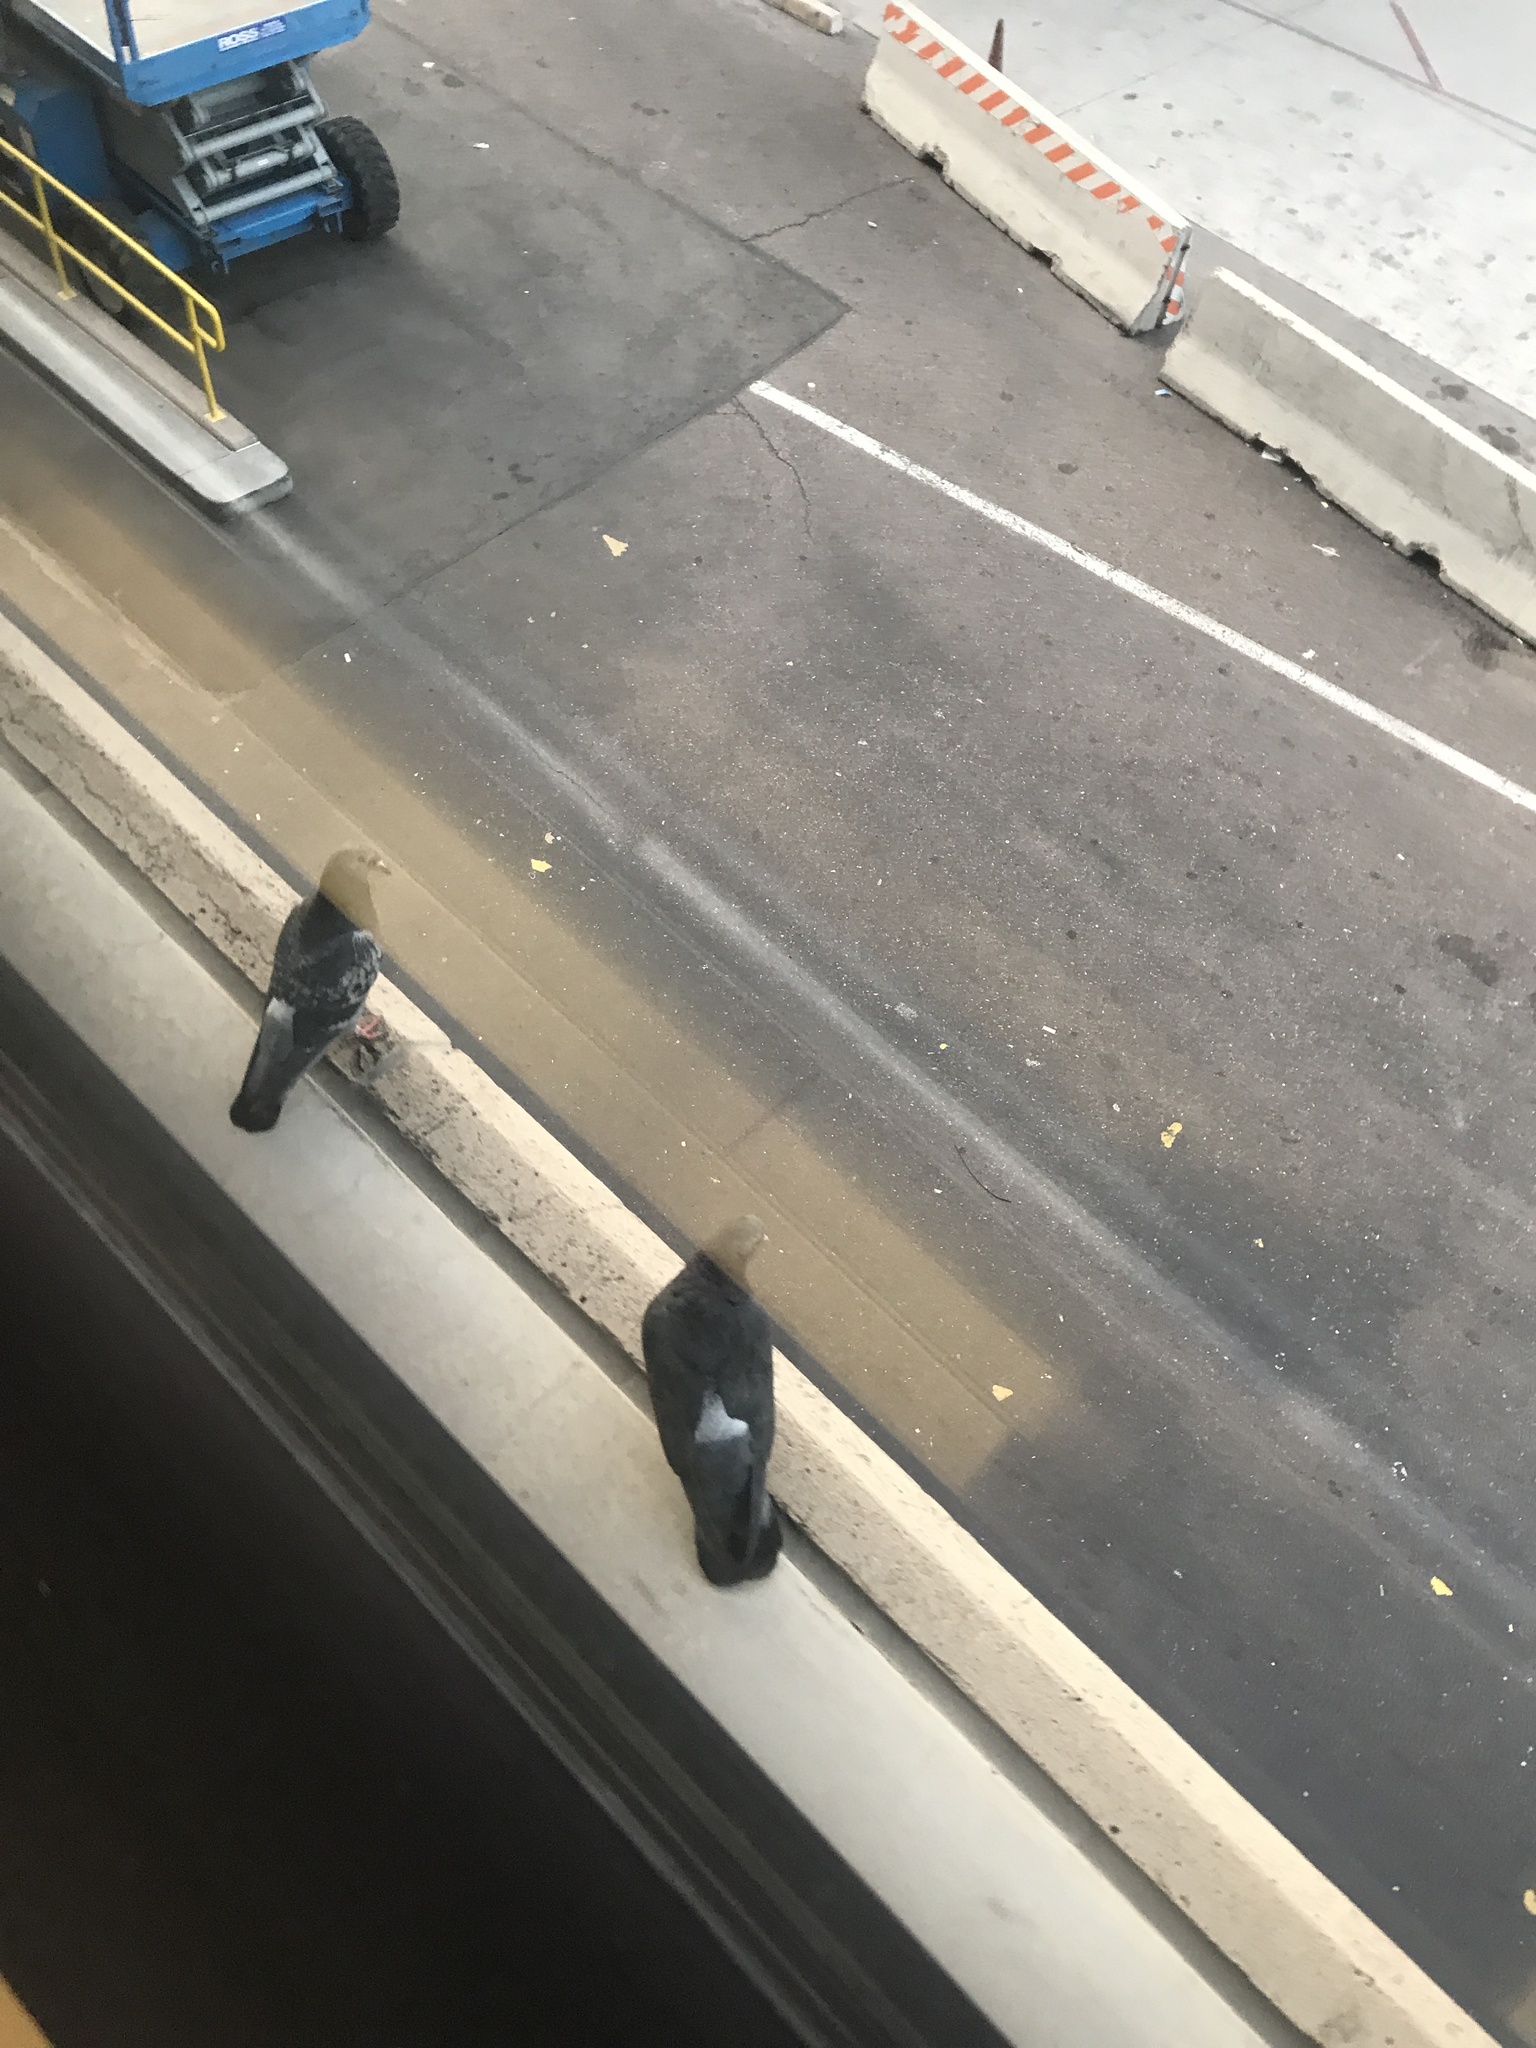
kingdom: Animalia
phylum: Chordata
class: Aves
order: Columbiformes
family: Columbidae
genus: Columba
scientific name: Columba livia
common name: Rock pigeon
